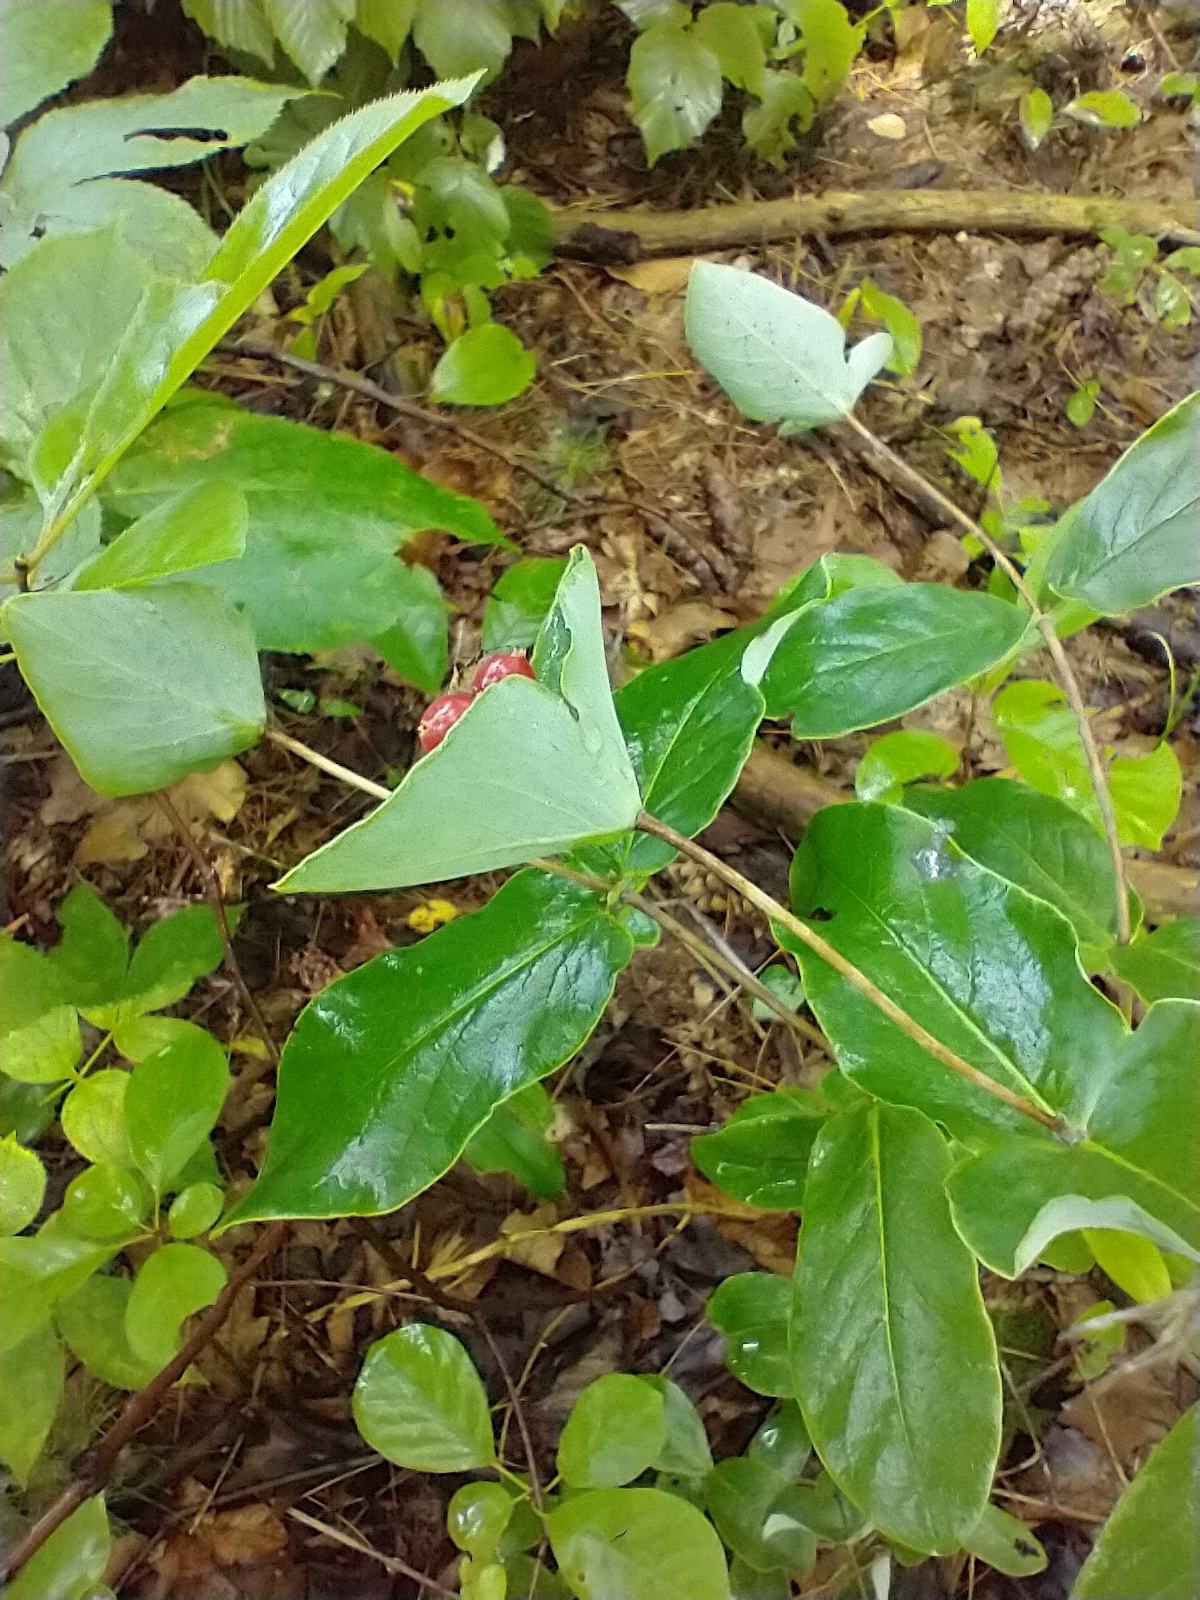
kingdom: Plantae
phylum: Tracheophyta
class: Magnoliopsida
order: Dipsacales
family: Caprifoliaceae
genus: Lonicera
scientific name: Lonicera dioica
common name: Limber honeysuckle
